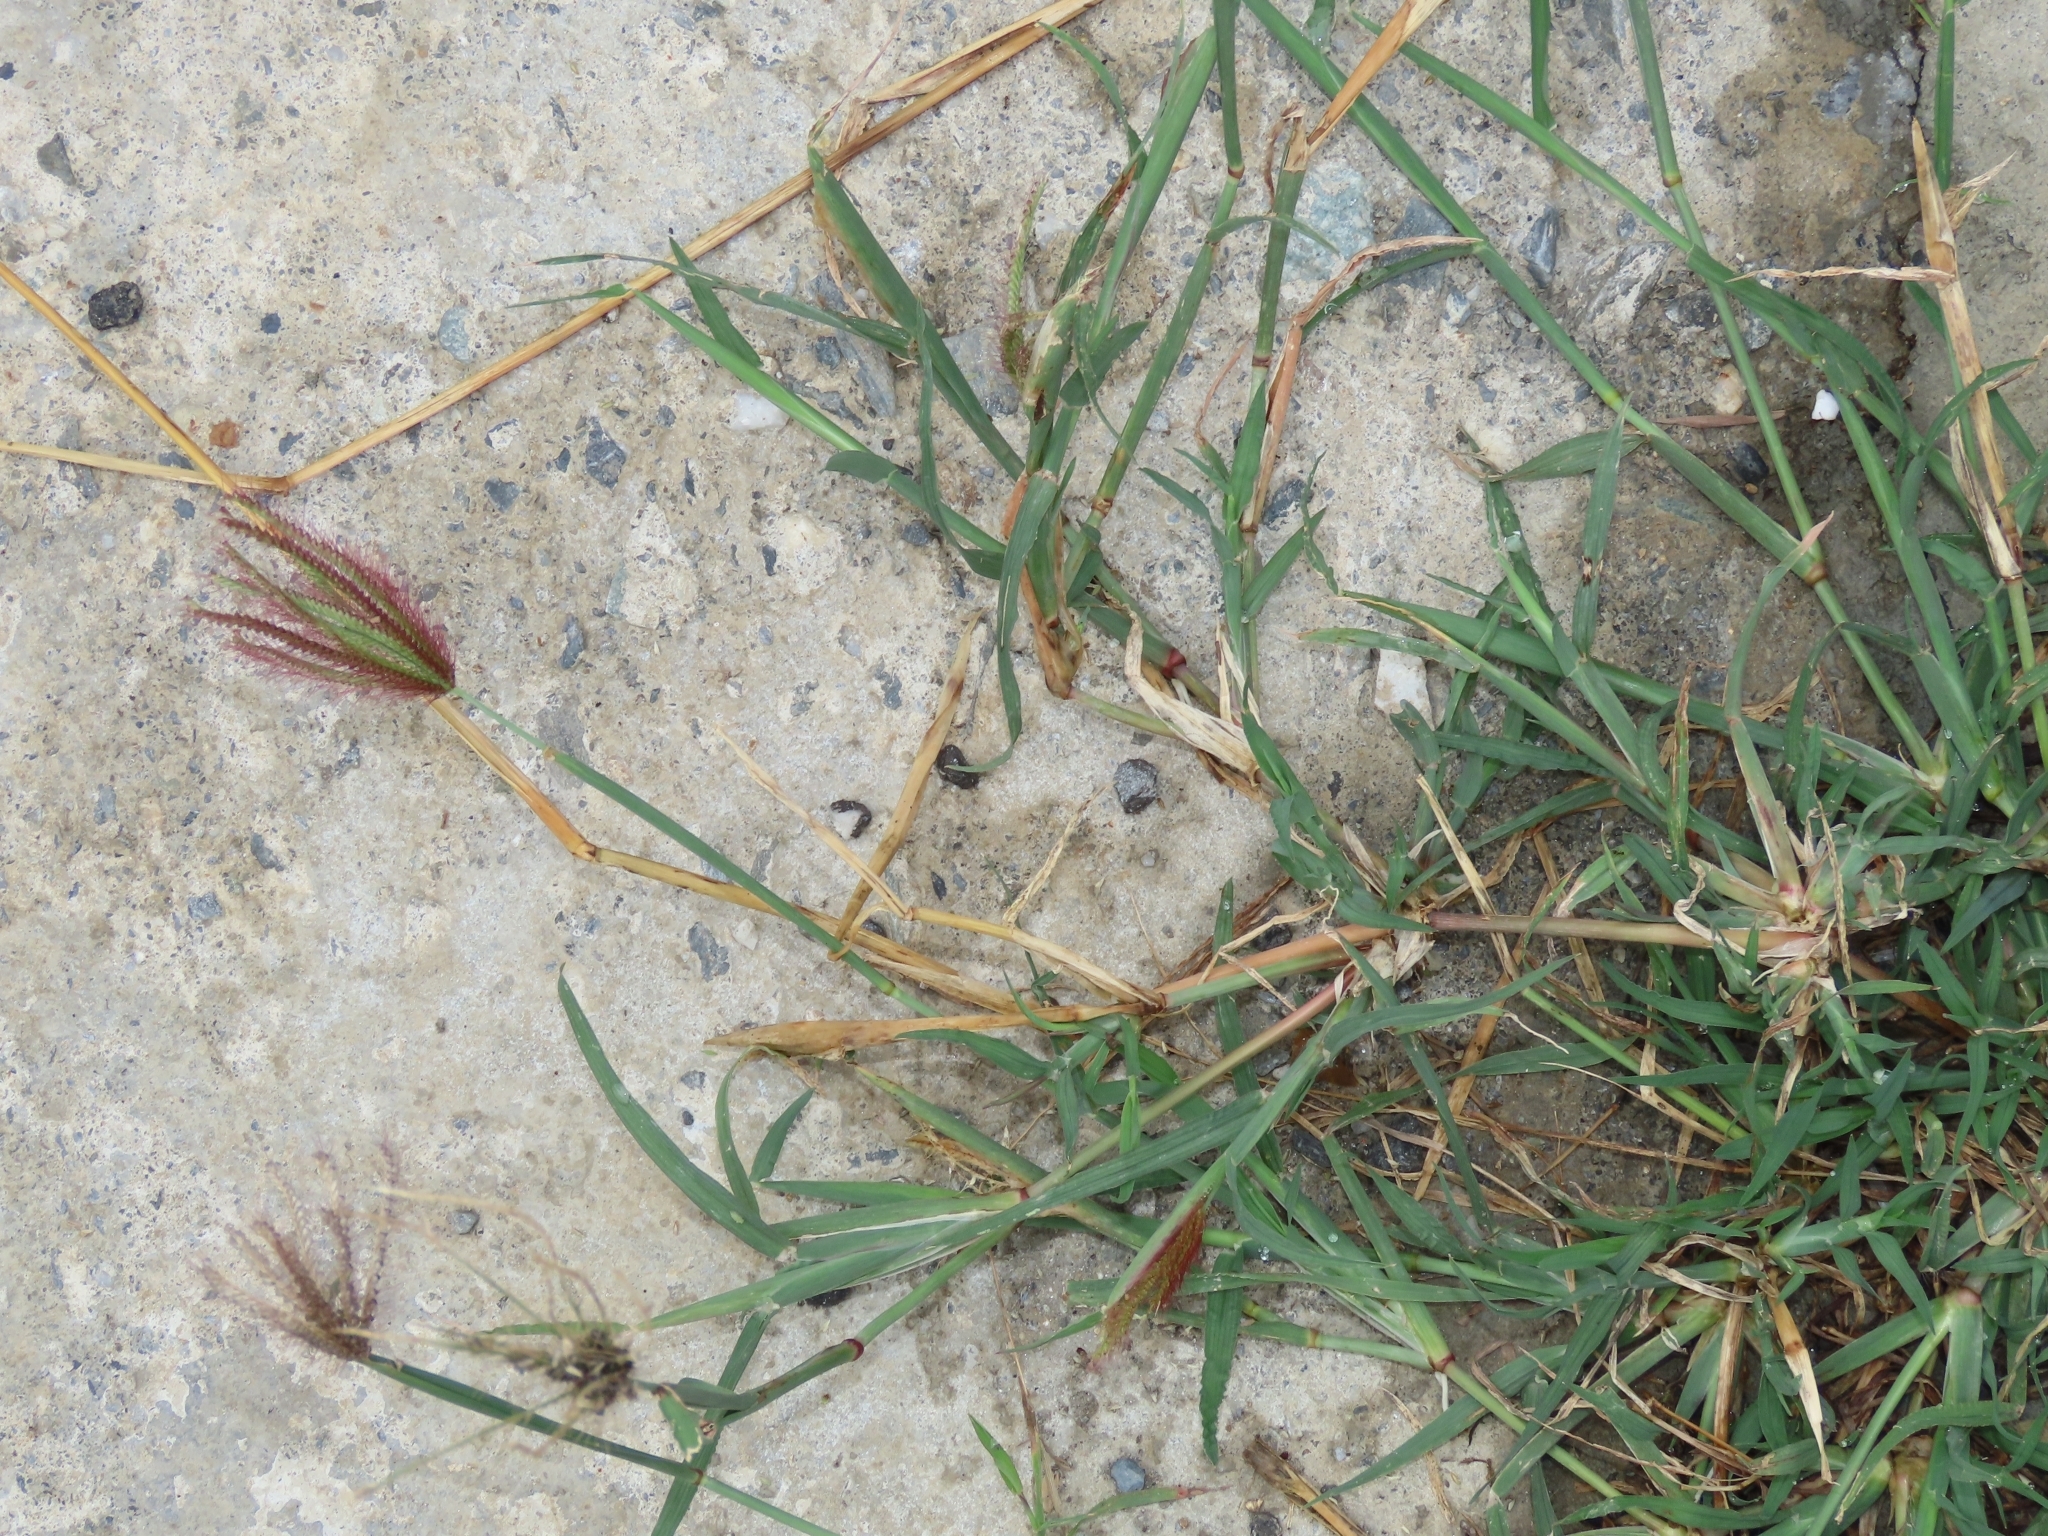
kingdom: Plantae
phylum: Tracheophyta
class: Liliopsida
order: Poales
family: Poaceae
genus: Chloris
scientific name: Chloris barbata
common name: Swollen fingergrass
